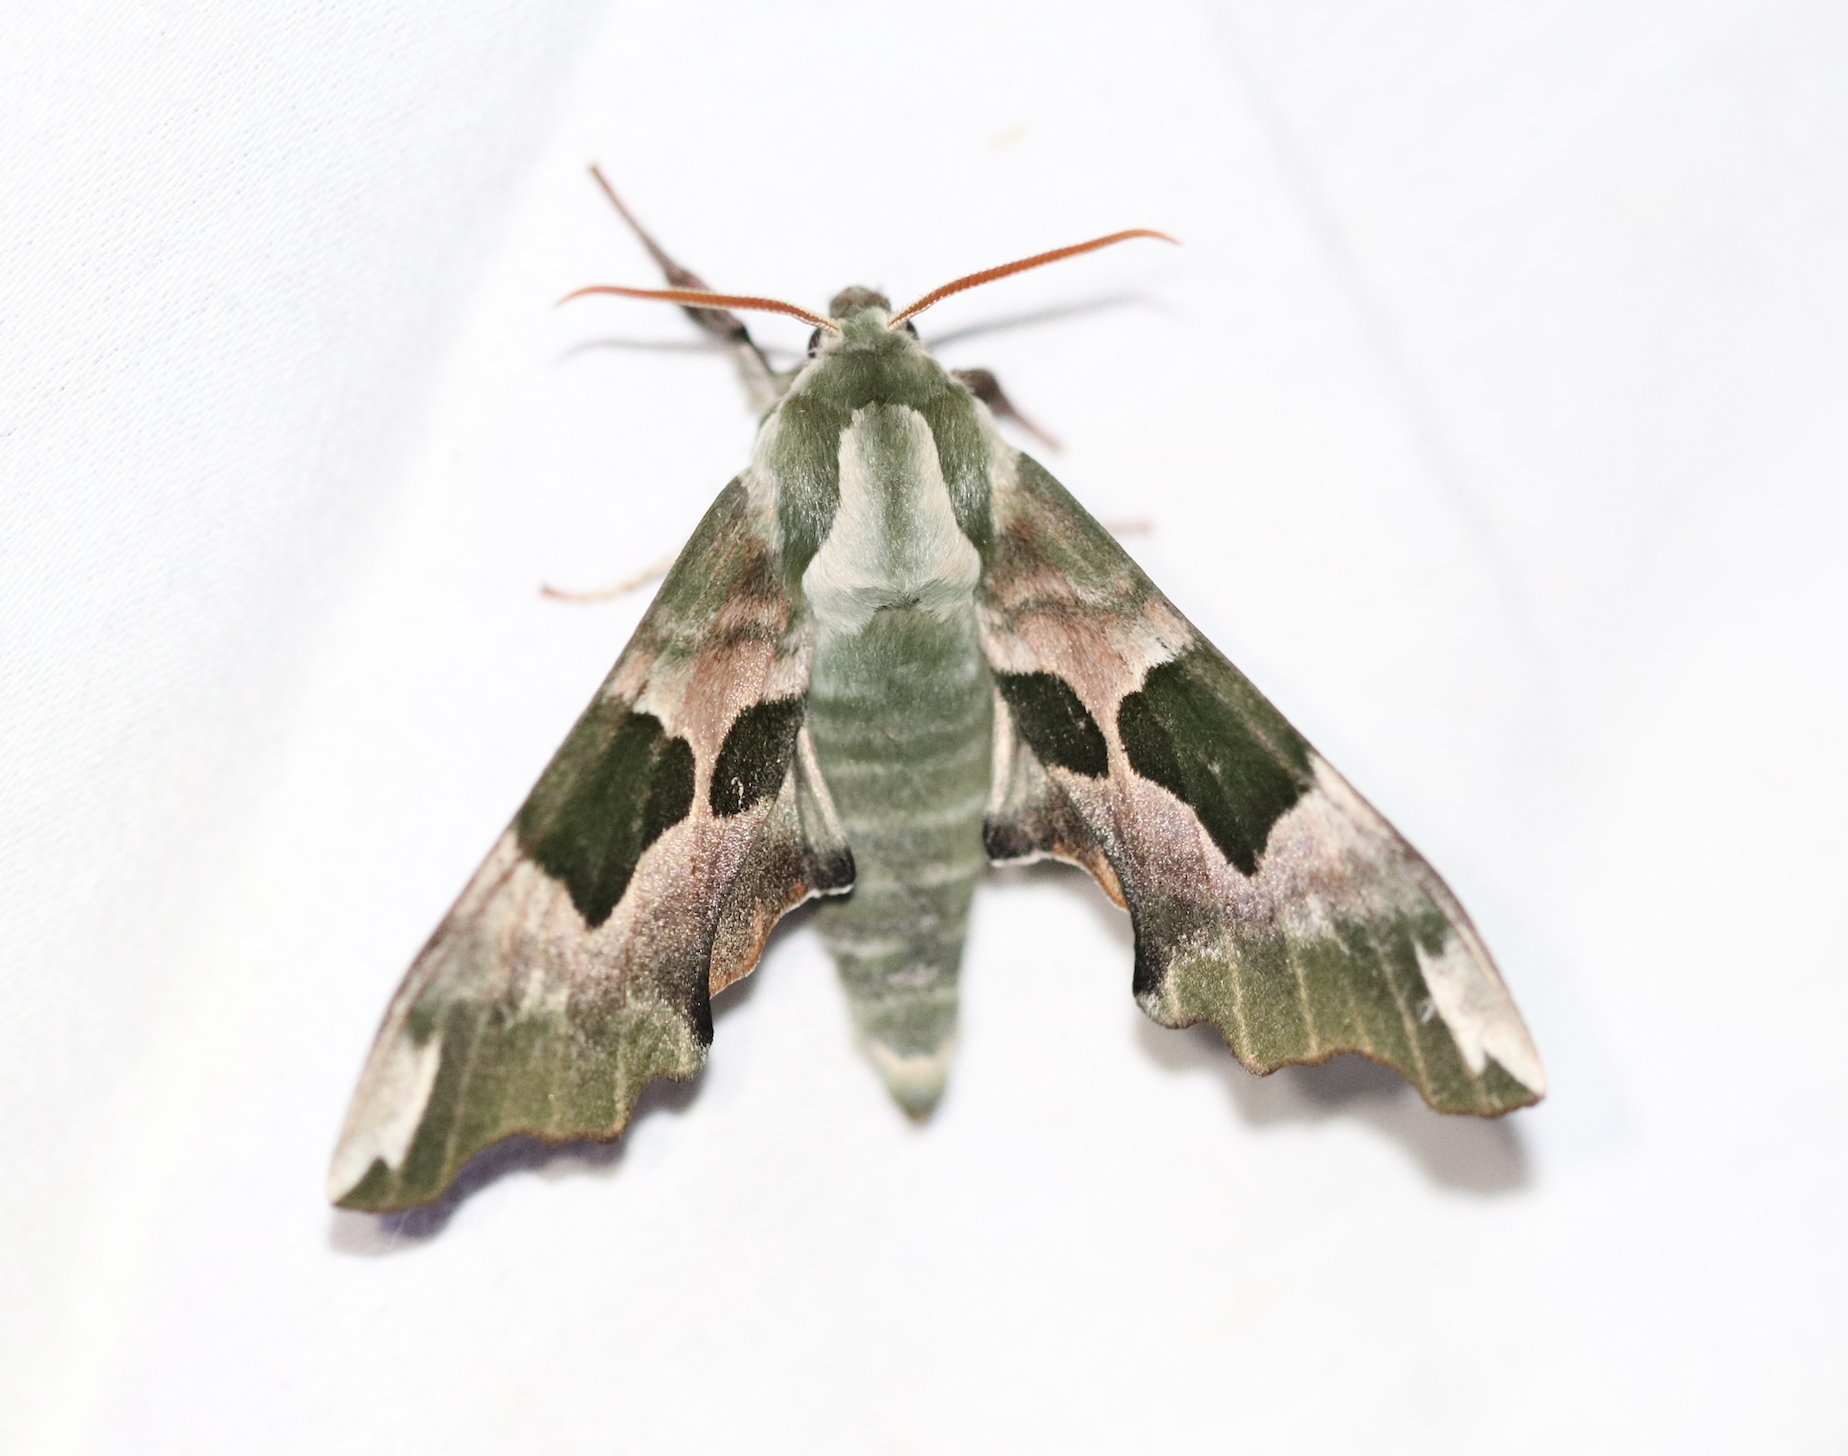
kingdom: Animalia
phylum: Arthropoda
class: Insecta
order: Lepidoptera
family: Sphingidae
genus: Mimas
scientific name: Mimas tiliae
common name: Lime hawk-moth
